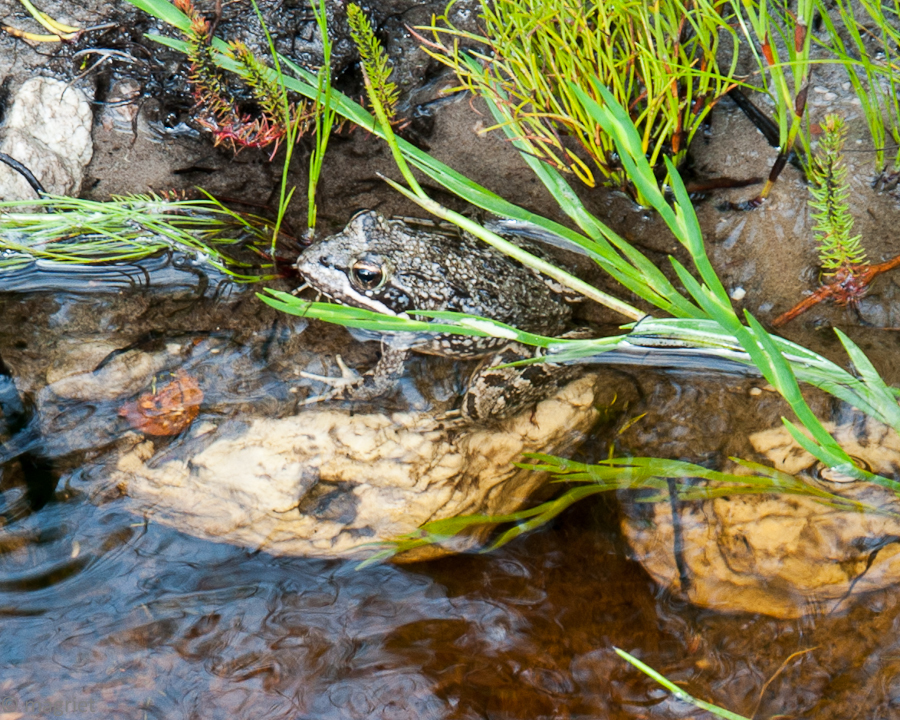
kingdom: Animalia
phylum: Chordata
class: Amphibia
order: Anura
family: Pyxicephalidae
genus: Amietia
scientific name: Amietia fuscigula
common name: Cape rana
